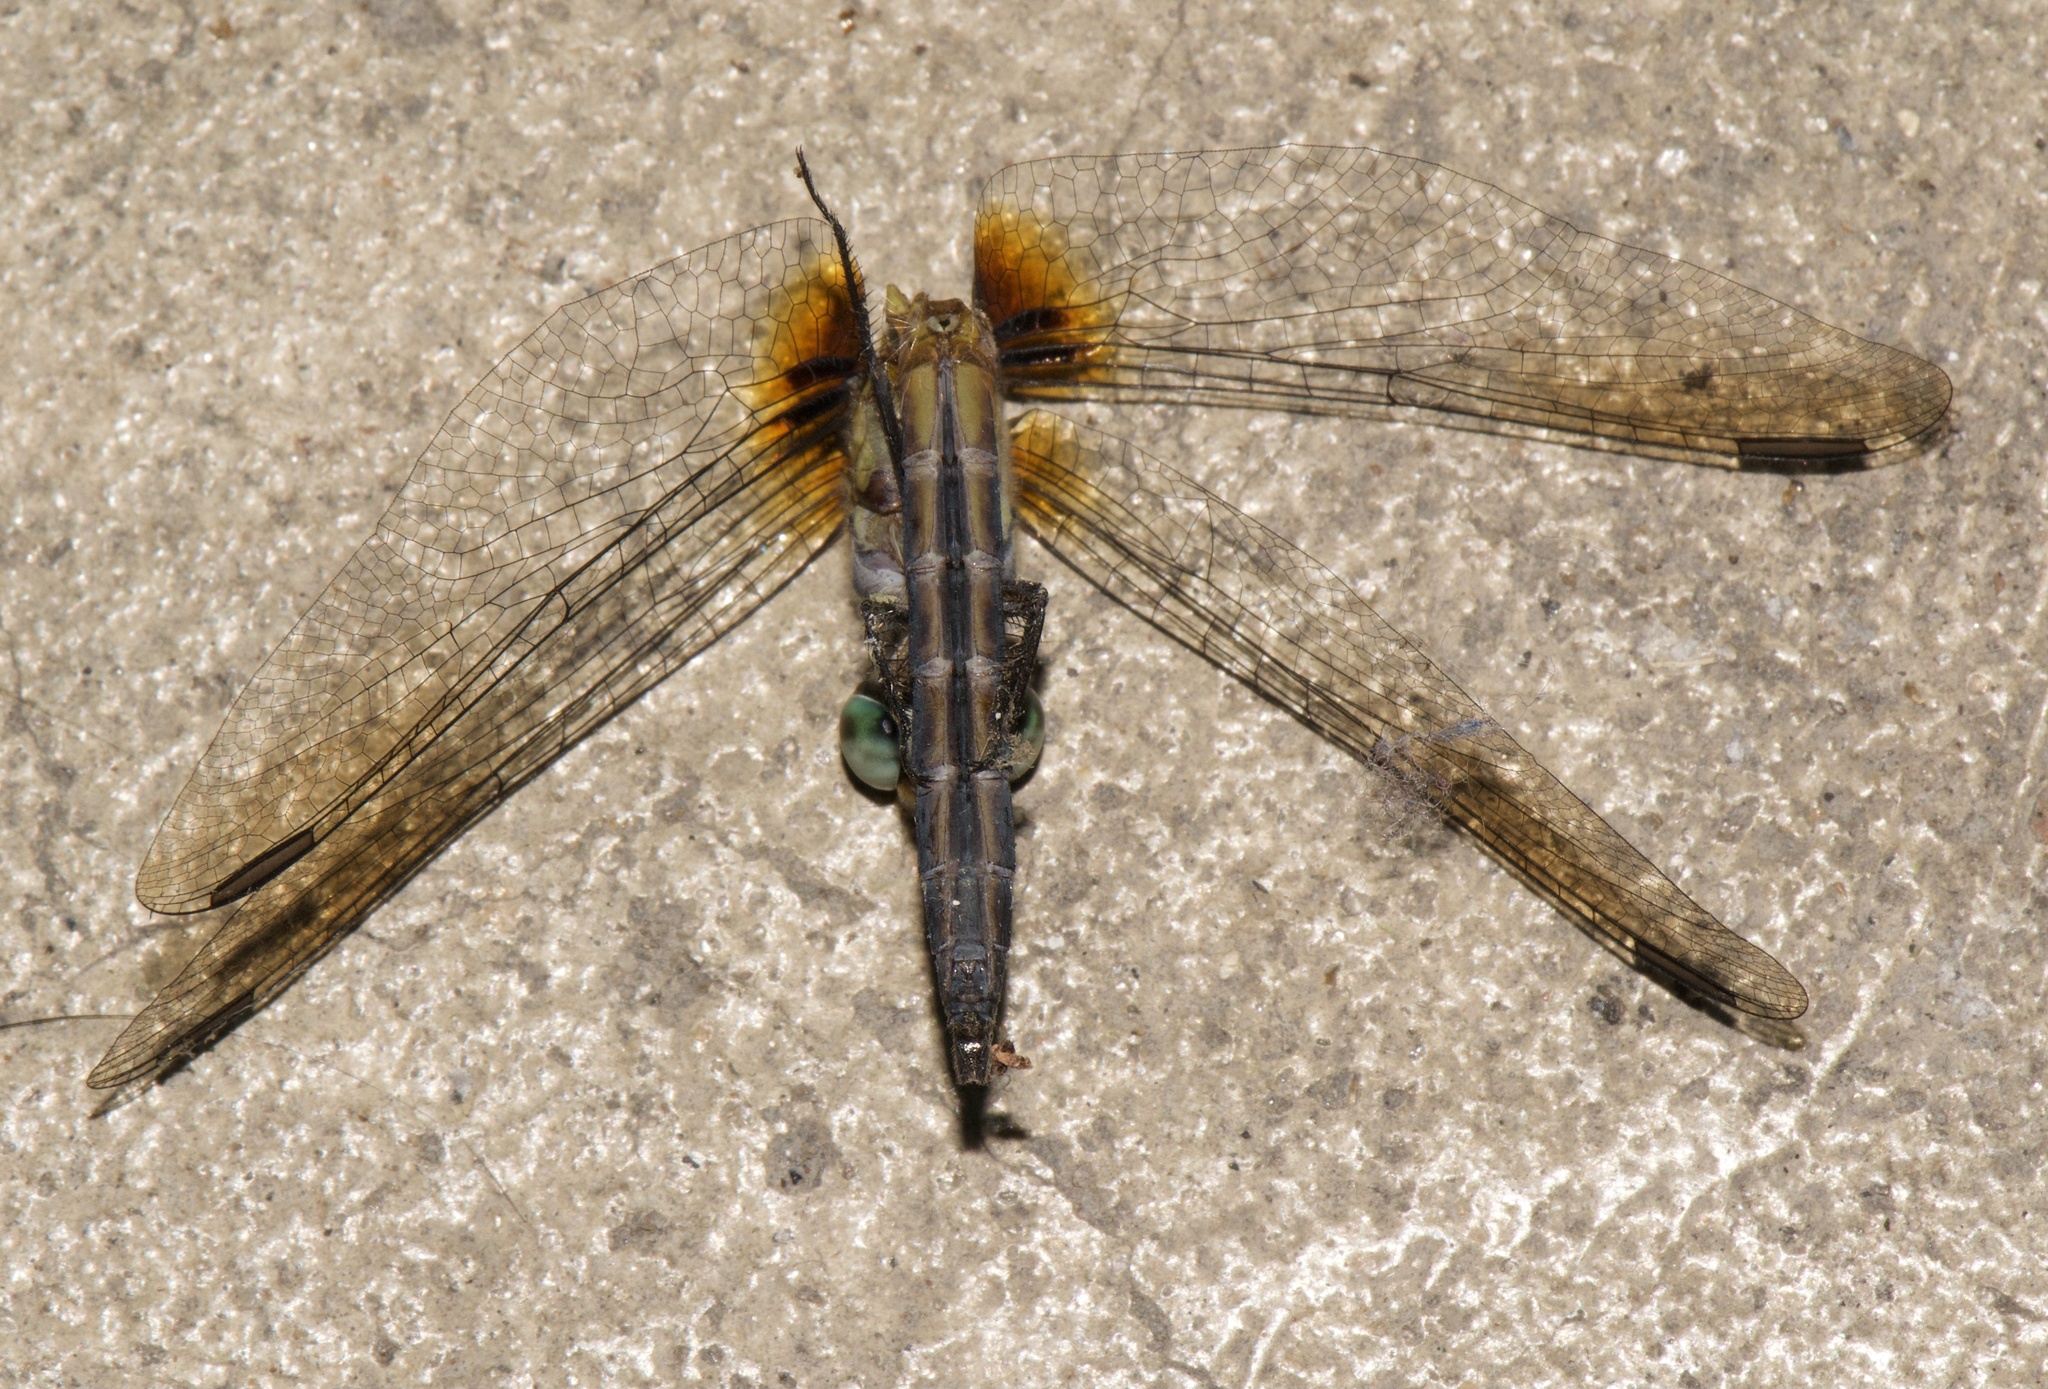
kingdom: Animalia
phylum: Arthropoda
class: Insecta
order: Odonata
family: Libellulidae
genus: Pachydiplax
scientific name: Pachydiplax longipennis
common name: Blue dasher
